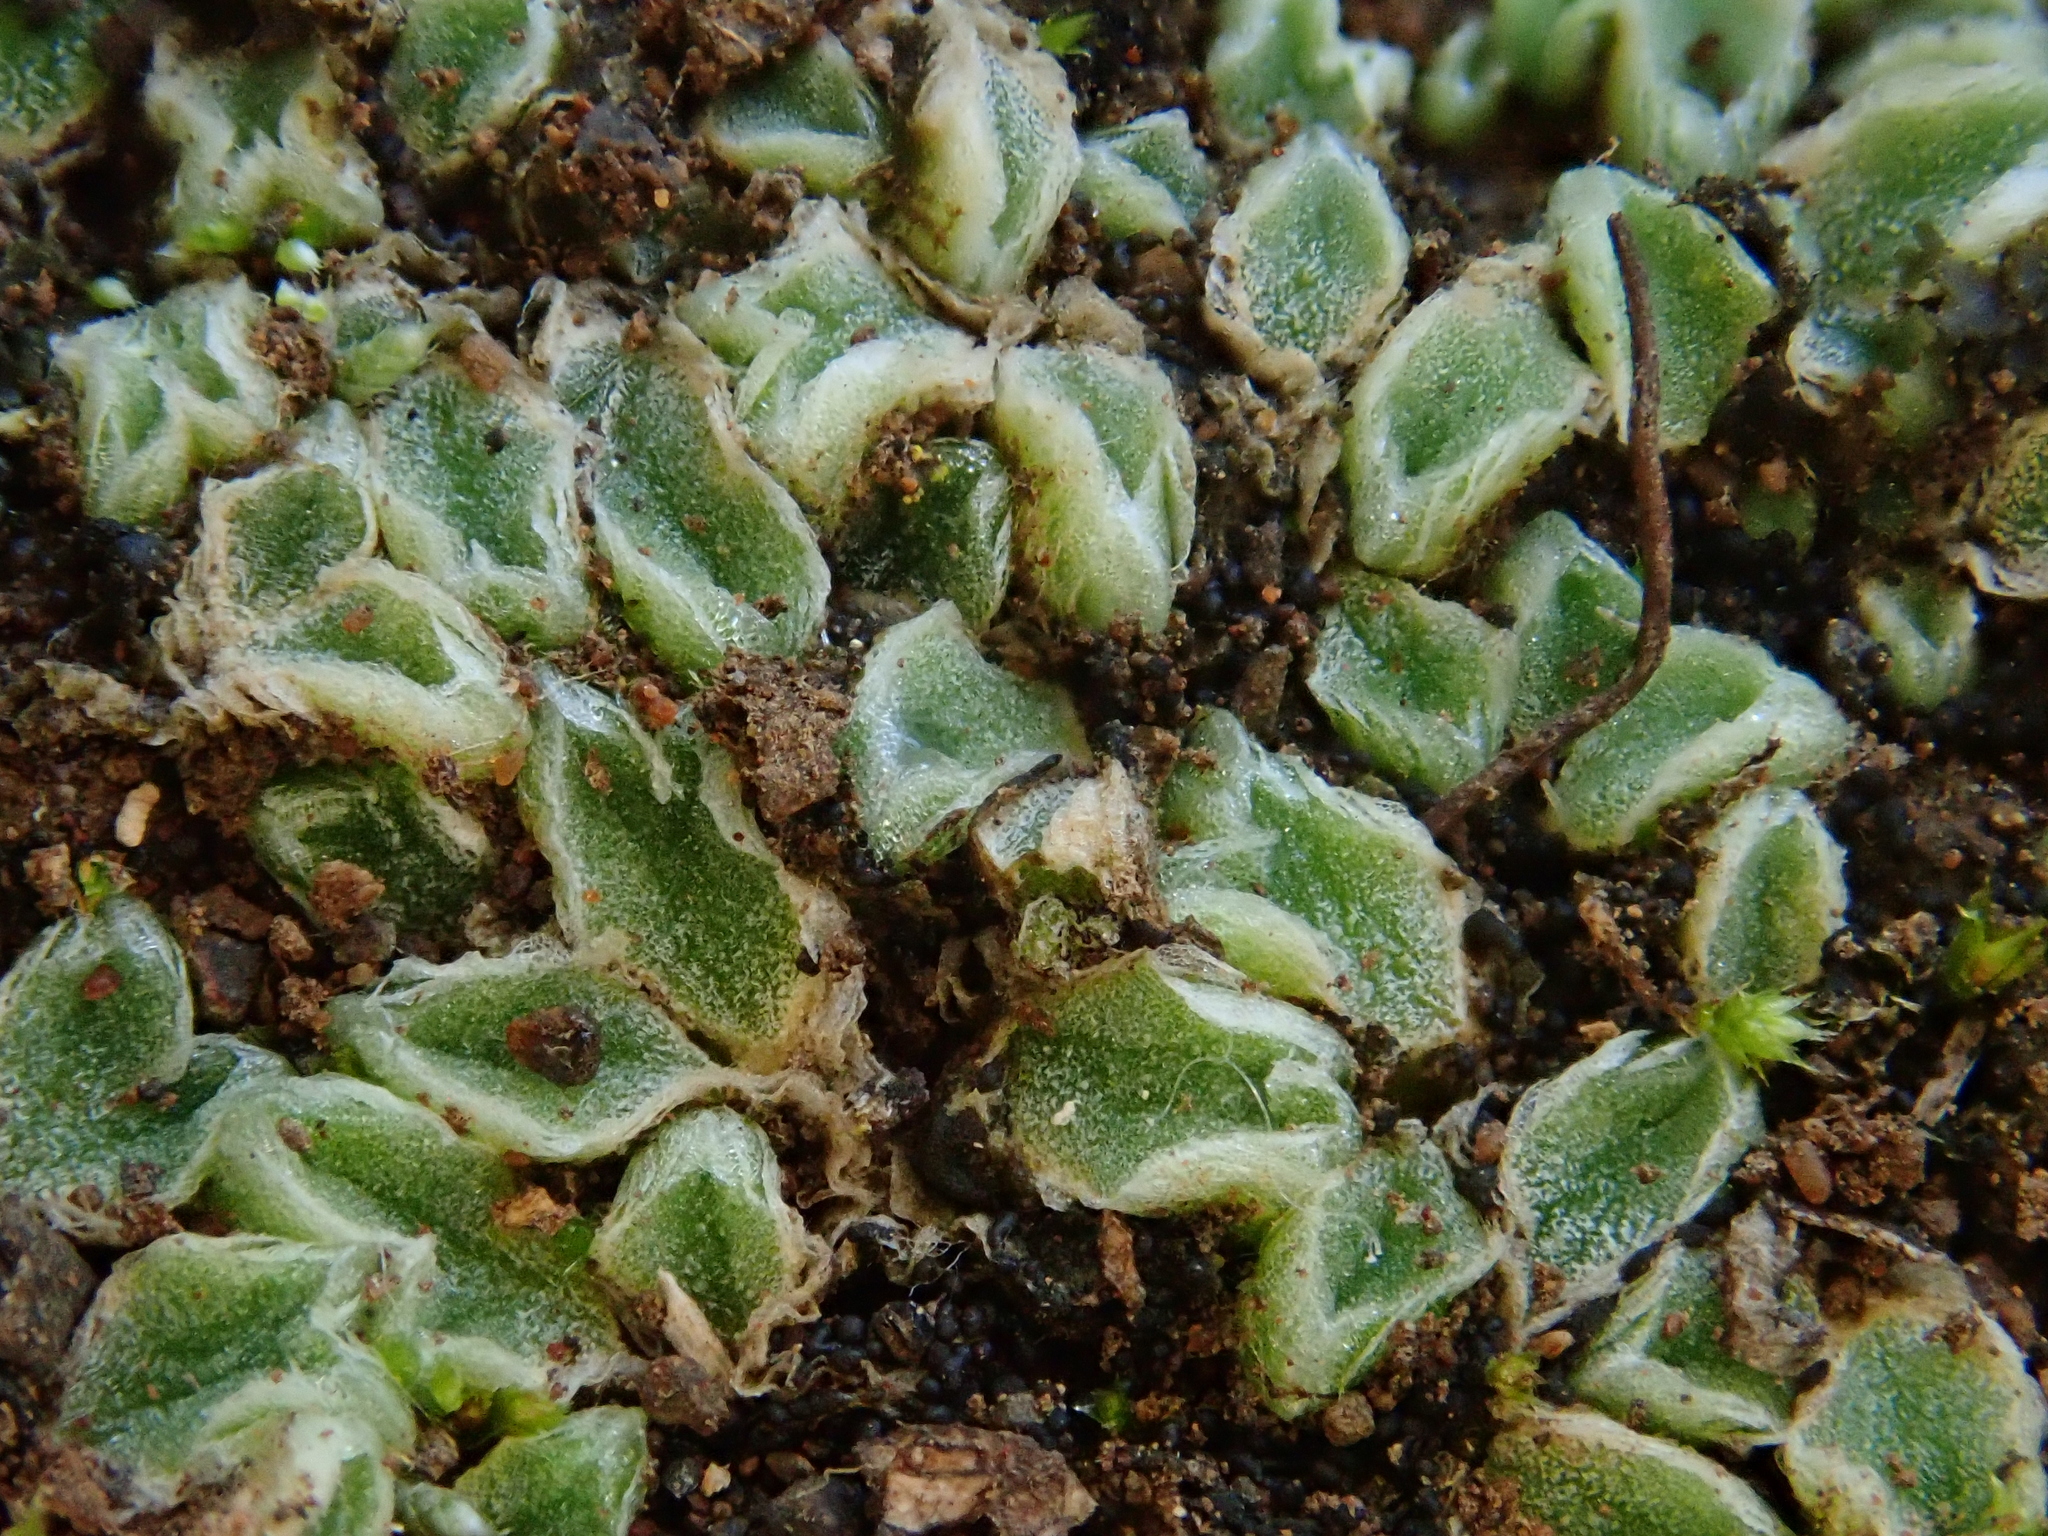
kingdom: Plantae
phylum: Marchantiophyta
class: Marchantiopsida
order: Marchantiales
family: Ricciaceae
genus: Riccia
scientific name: Riccia boumanii
